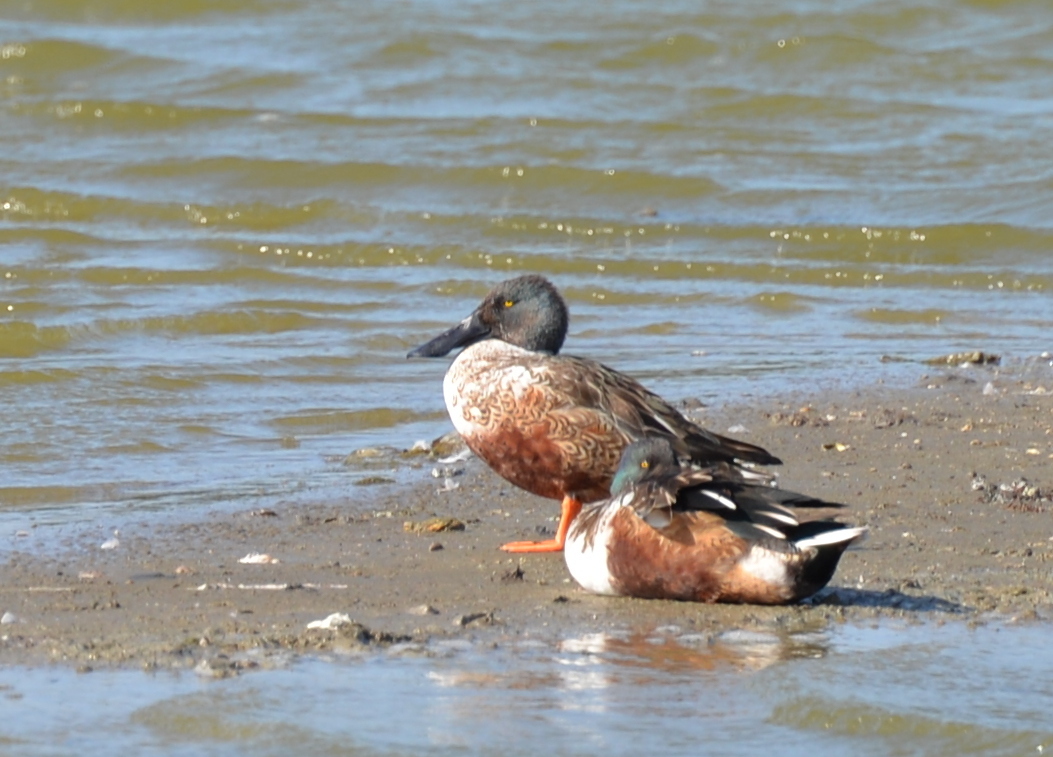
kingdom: Animalia
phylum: Chordata
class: Aves
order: Anseriformes
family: Anatidae
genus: Spatula
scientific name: Spatula clypeata
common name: Northern shoveler
